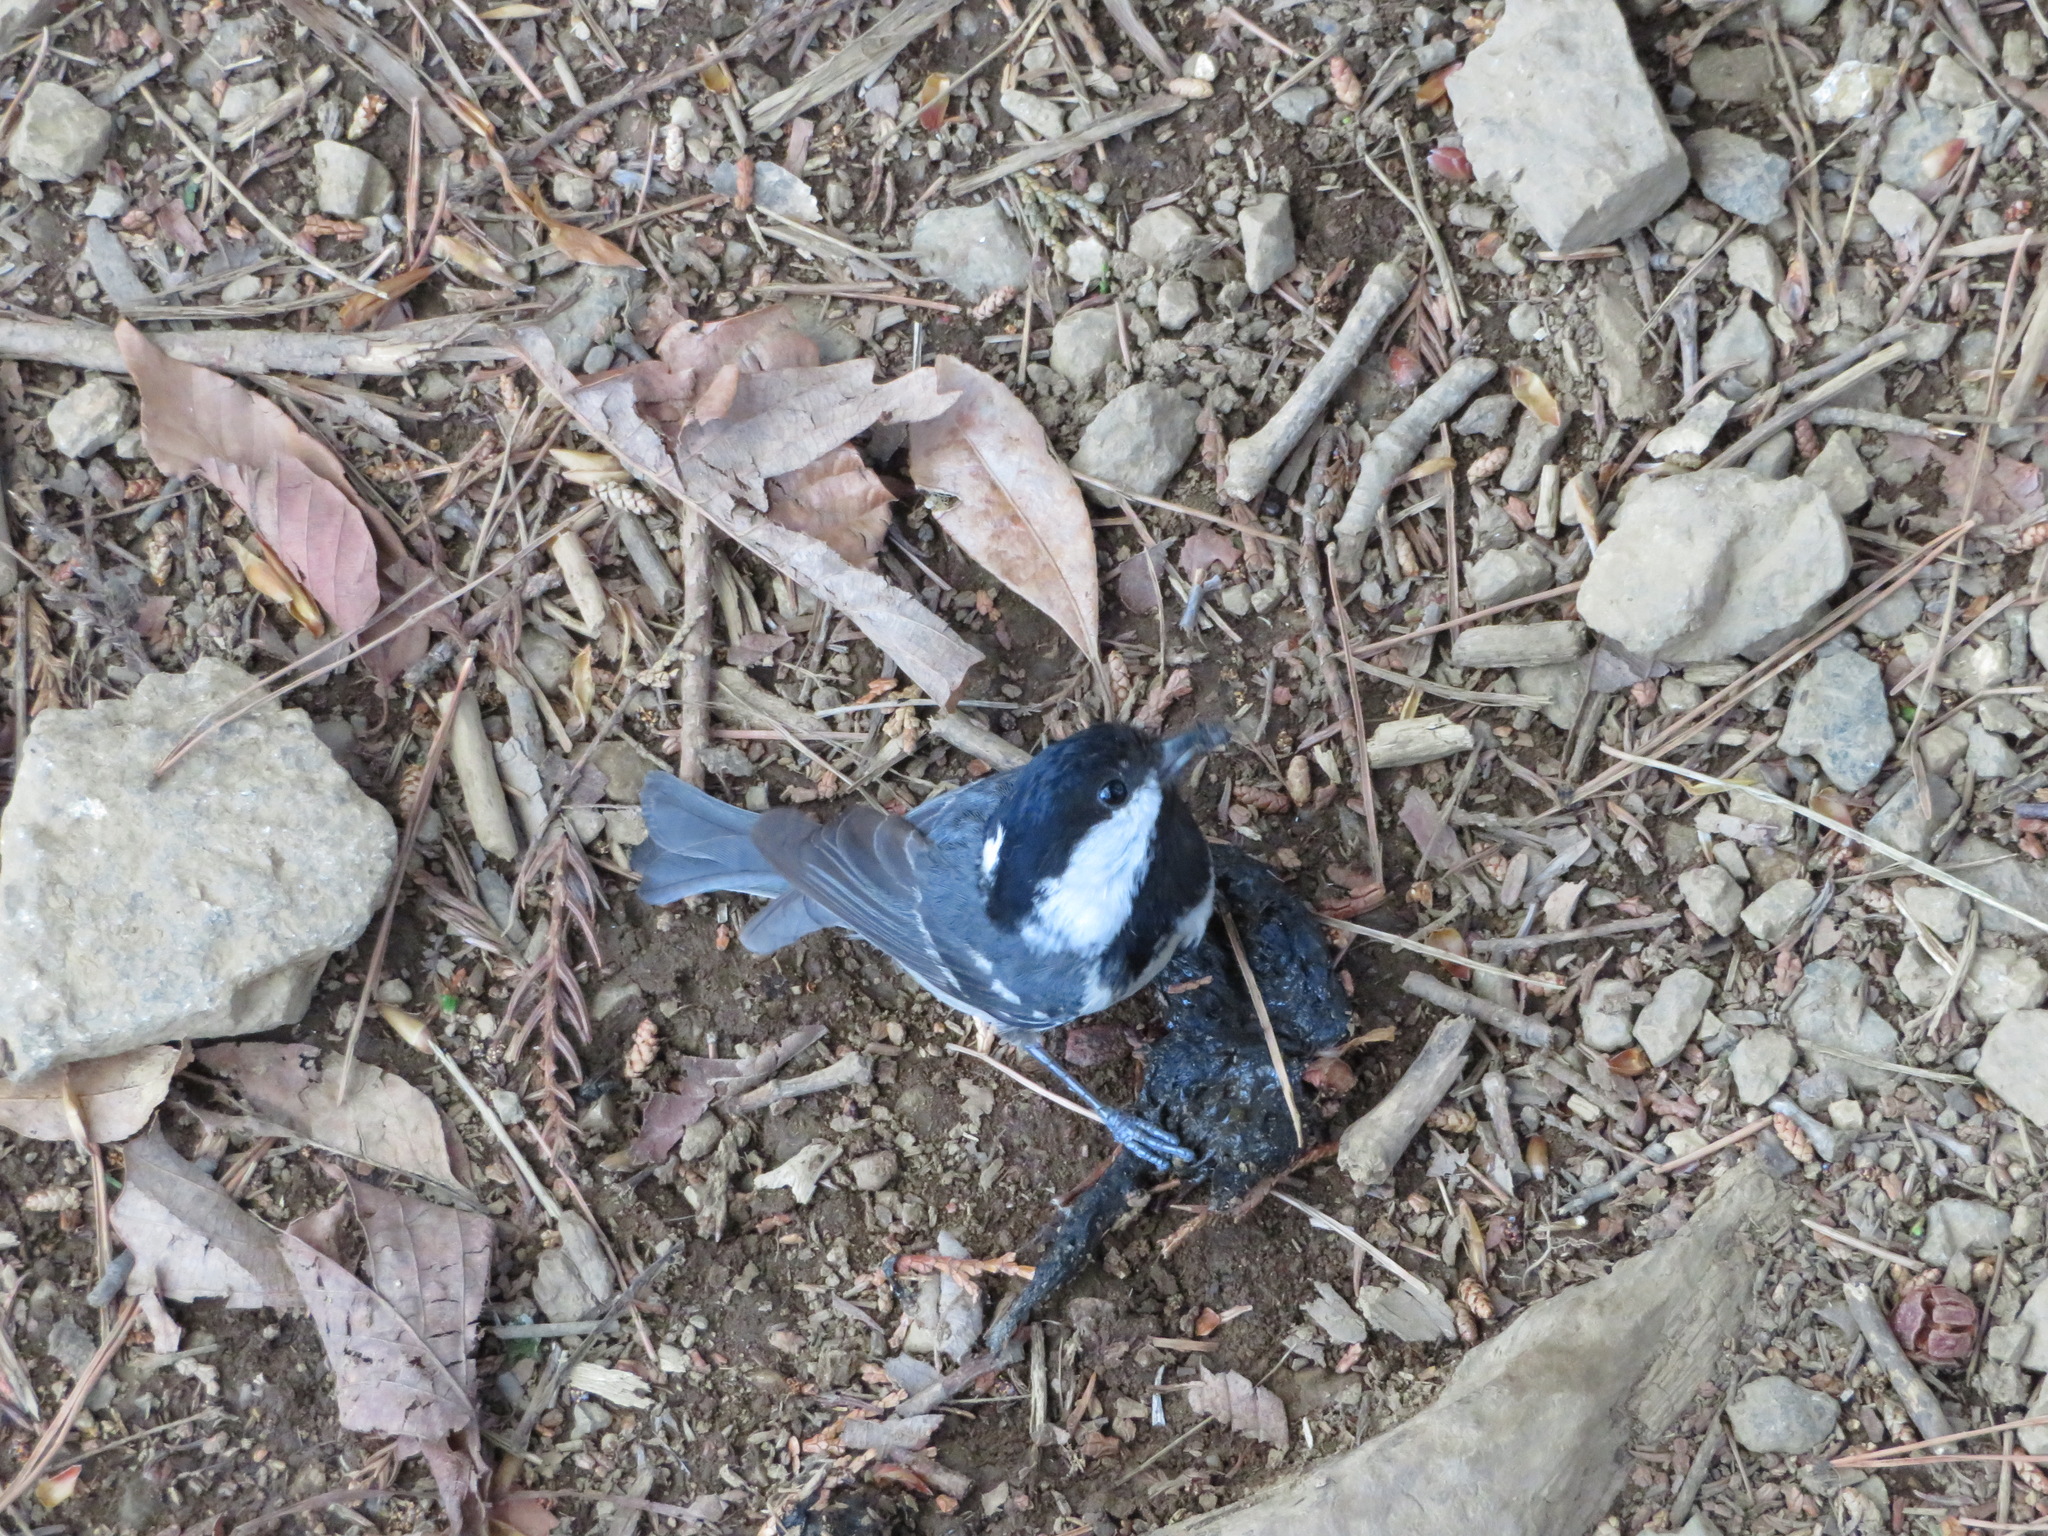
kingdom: Animalia
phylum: Chordata
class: Aves
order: Passeriformes
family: Paridae
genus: Periparus
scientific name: Periparus ater
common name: Coal tit
